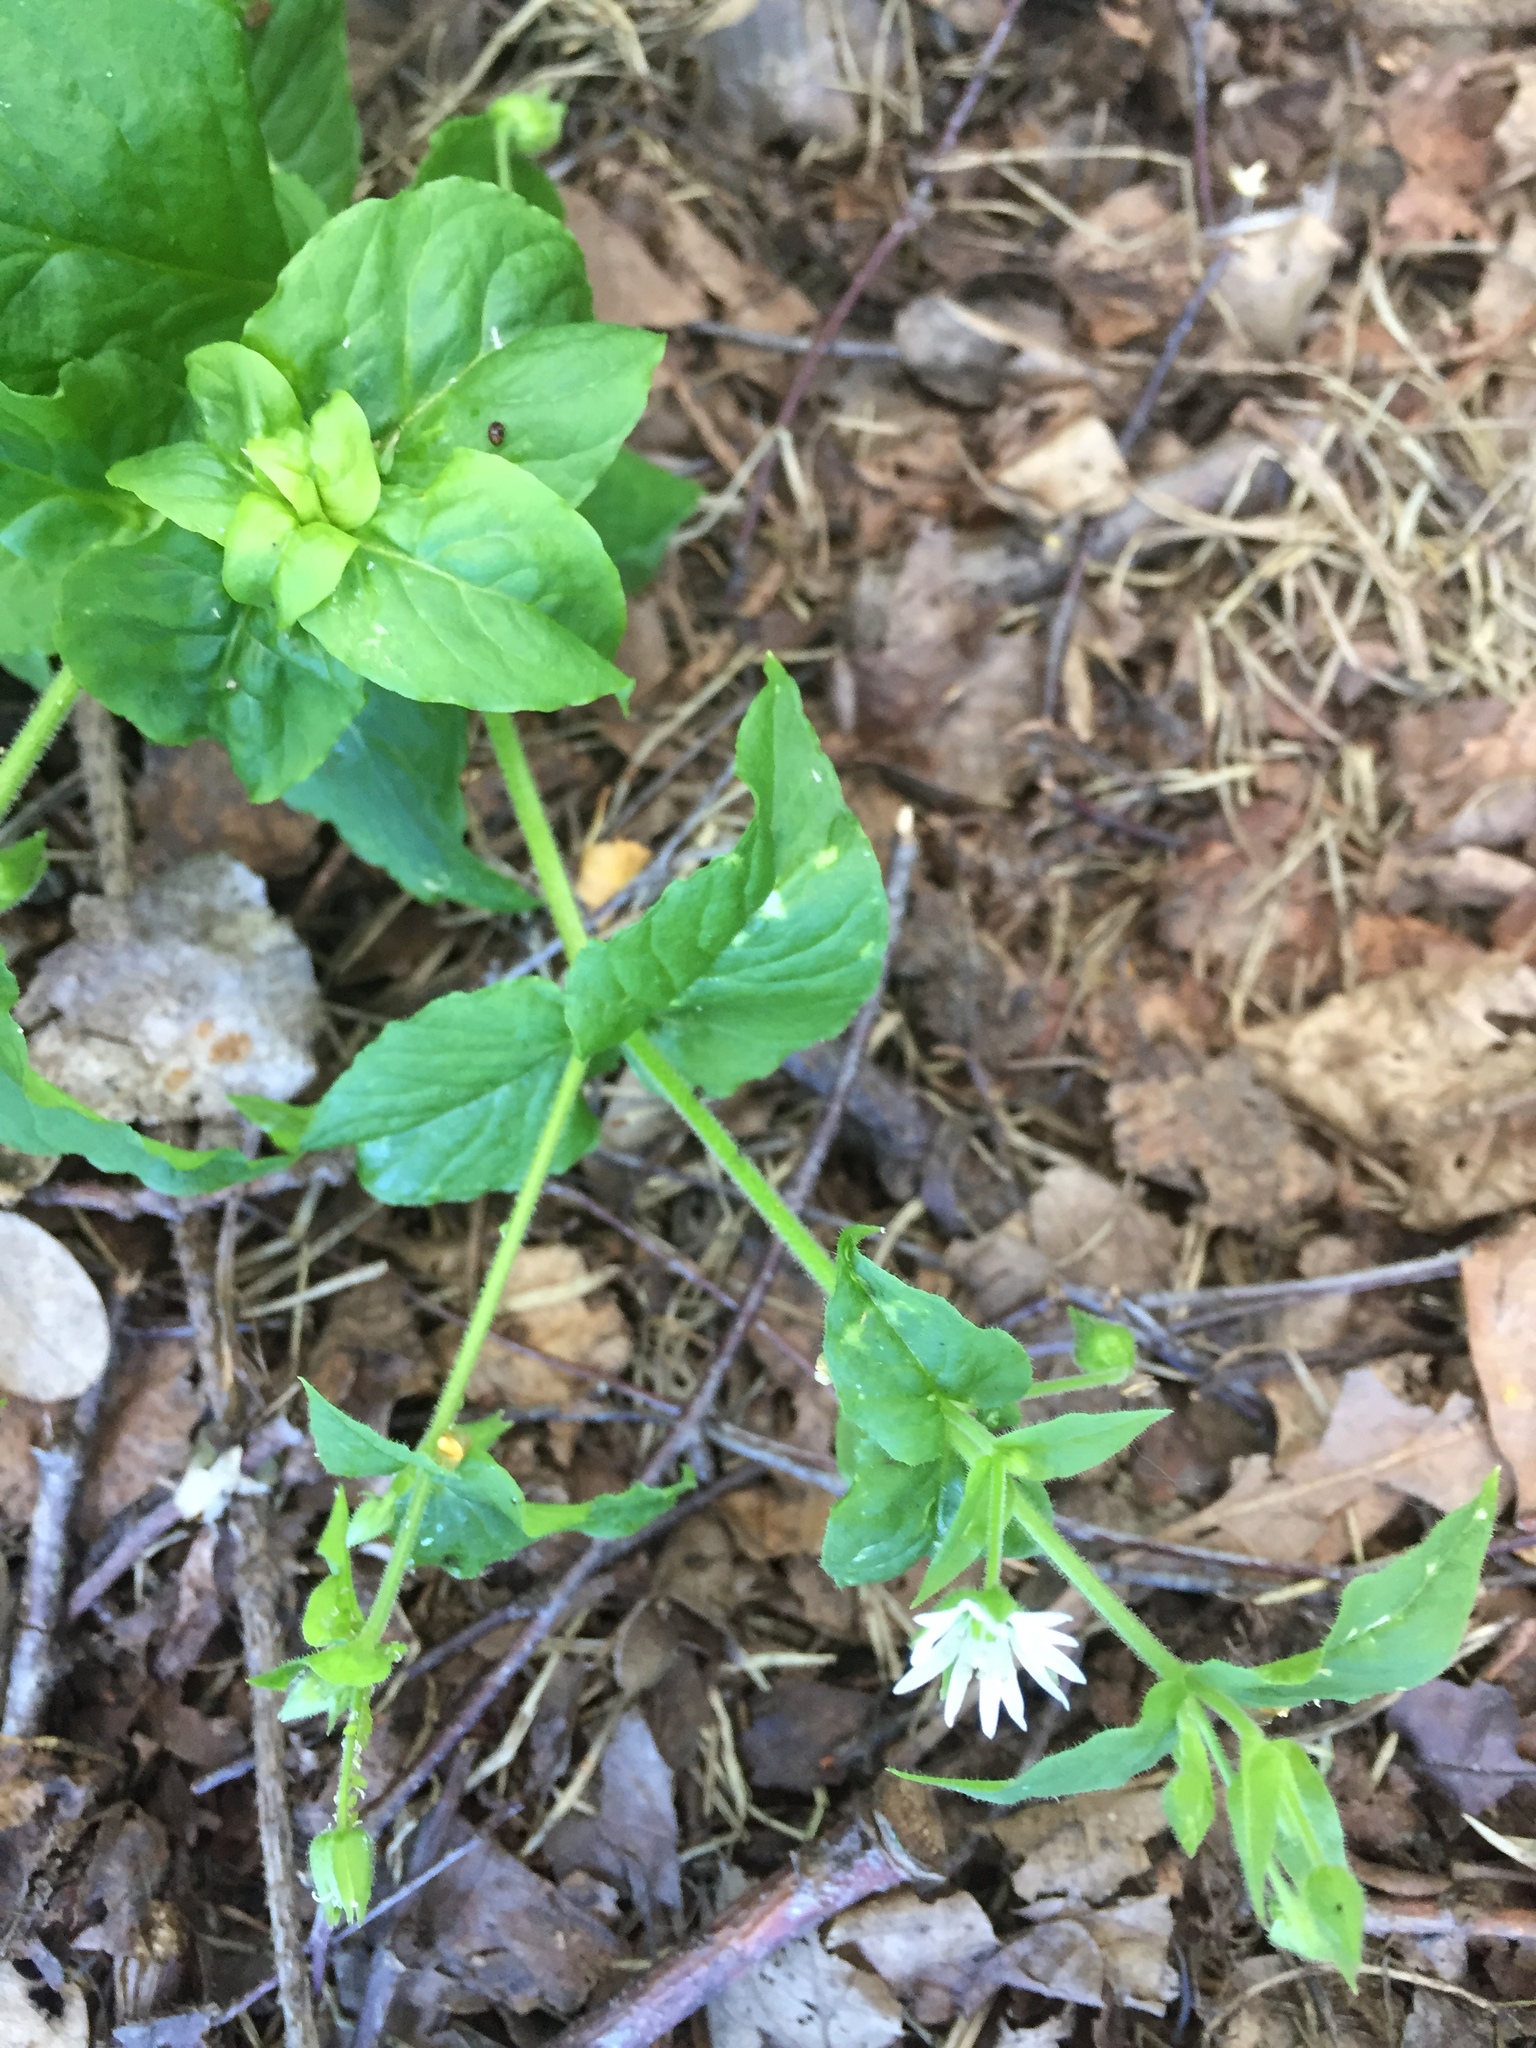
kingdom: Plantae
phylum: Tracheophyta
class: Magnoliopsida
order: Caryophyllales
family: Caryophyllaceae
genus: Stellaria
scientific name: Stellaria aquatica
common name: Water chickweed
